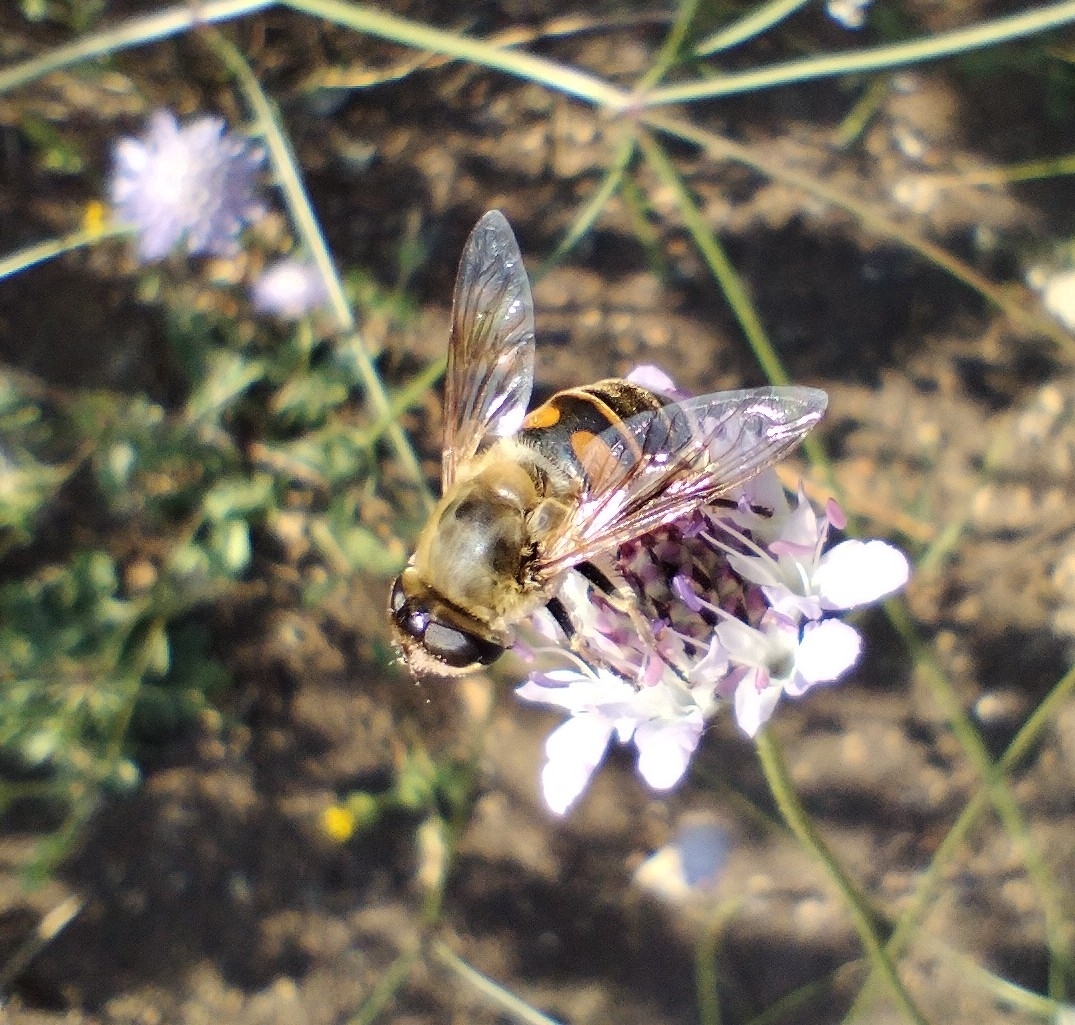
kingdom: Animalia
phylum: Arthropoda
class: Insecta
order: Diptera
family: Syrphidae
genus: Eristalis
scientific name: Eristalis tenax
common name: Drone fly
